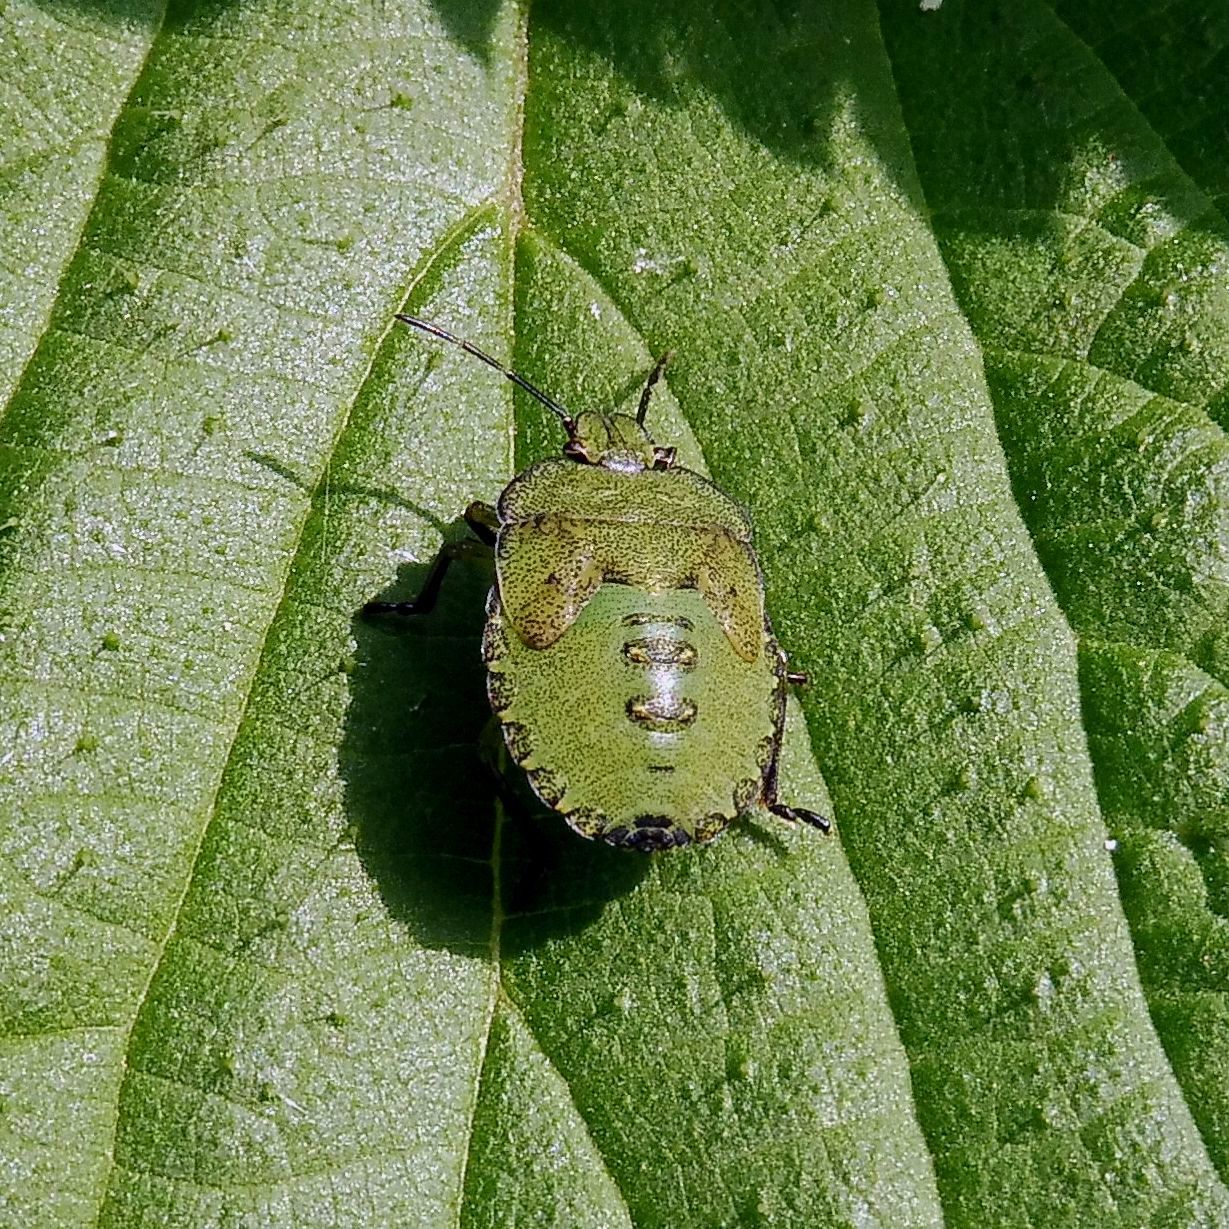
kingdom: Animalia
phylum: Arthropoda
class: Insecta
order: Hemiptera
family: Pentatomidae
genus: Palomena
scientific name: Palomena prasina
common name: Green shieldbug
